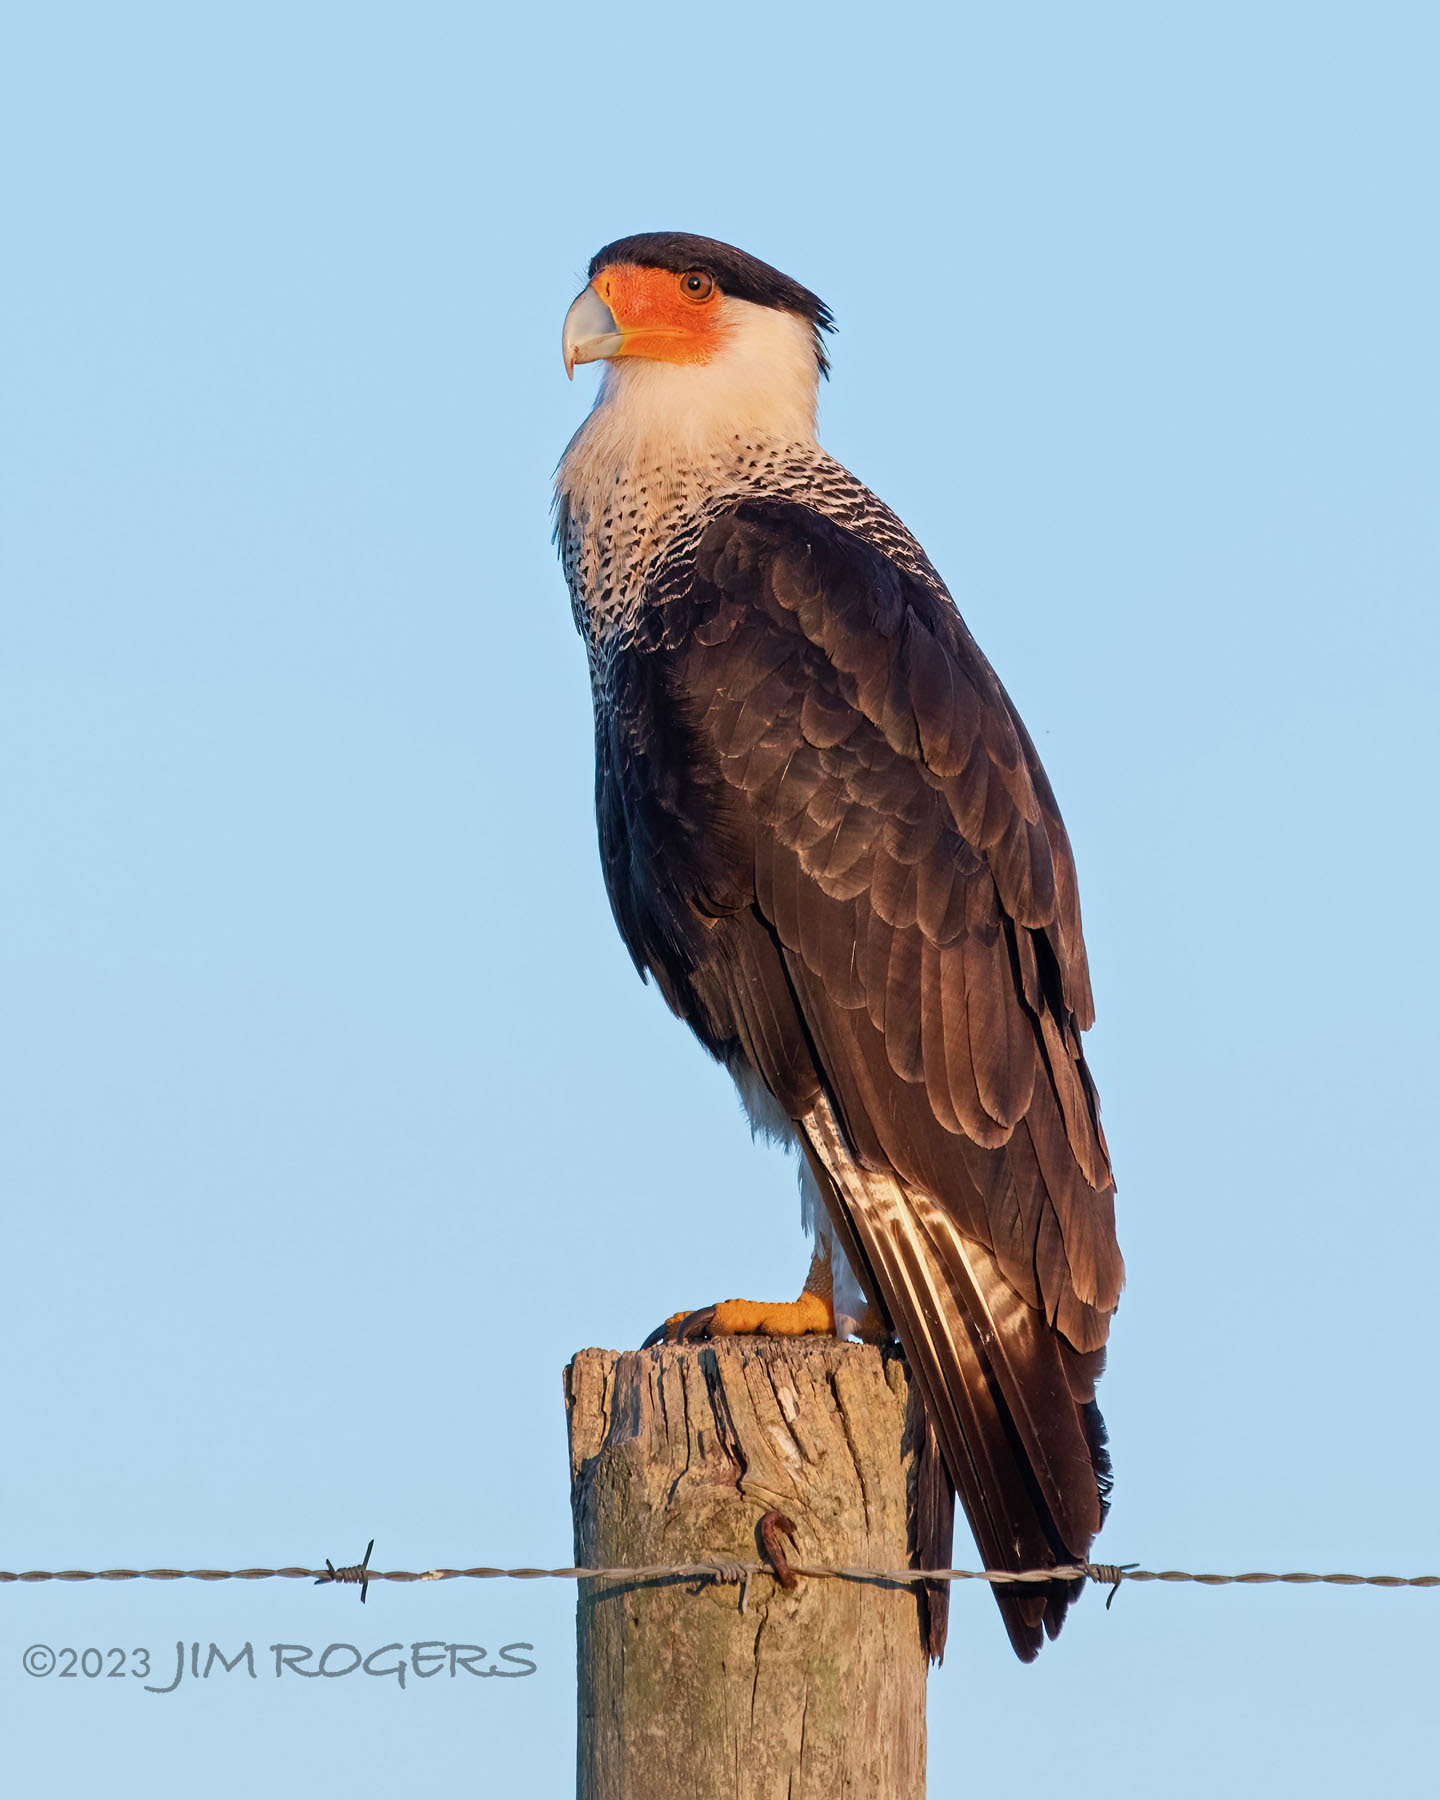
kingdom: Animalia
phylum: Chordata
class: Aves
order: Falconiformes
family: Falconidae
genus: Caracara
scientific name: Caracara plancus
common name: Southern caracara
